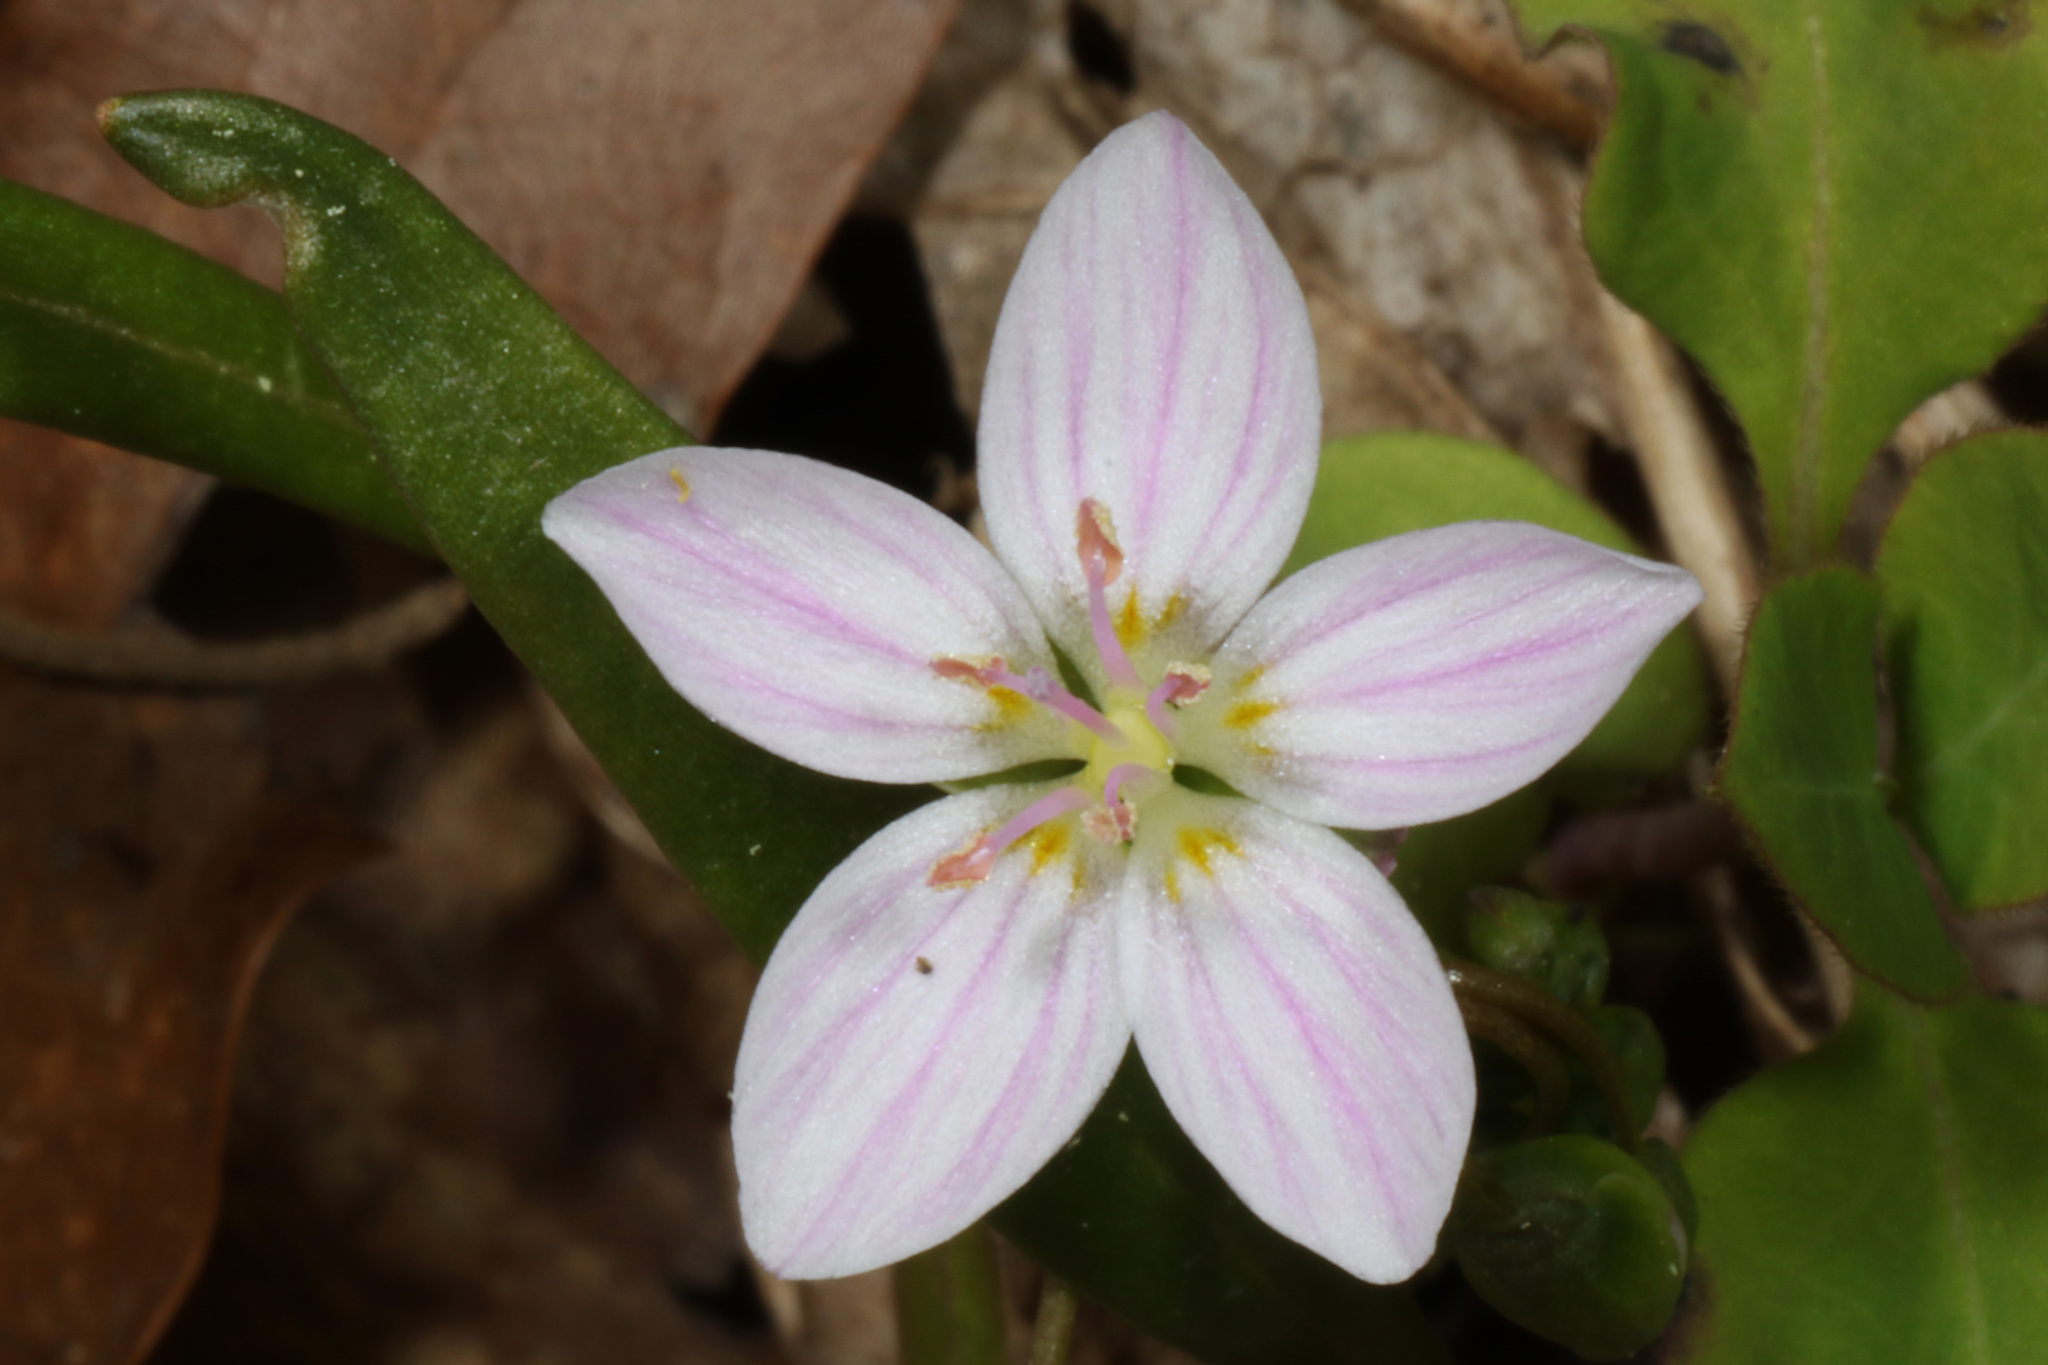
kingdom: Plantae
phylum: Tracheophyta
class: Magnoliopsida
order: Caryophyllales
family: Montiaceae
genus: Claytonia
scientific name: Claytonia virginica
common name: Virginia springbeauty
